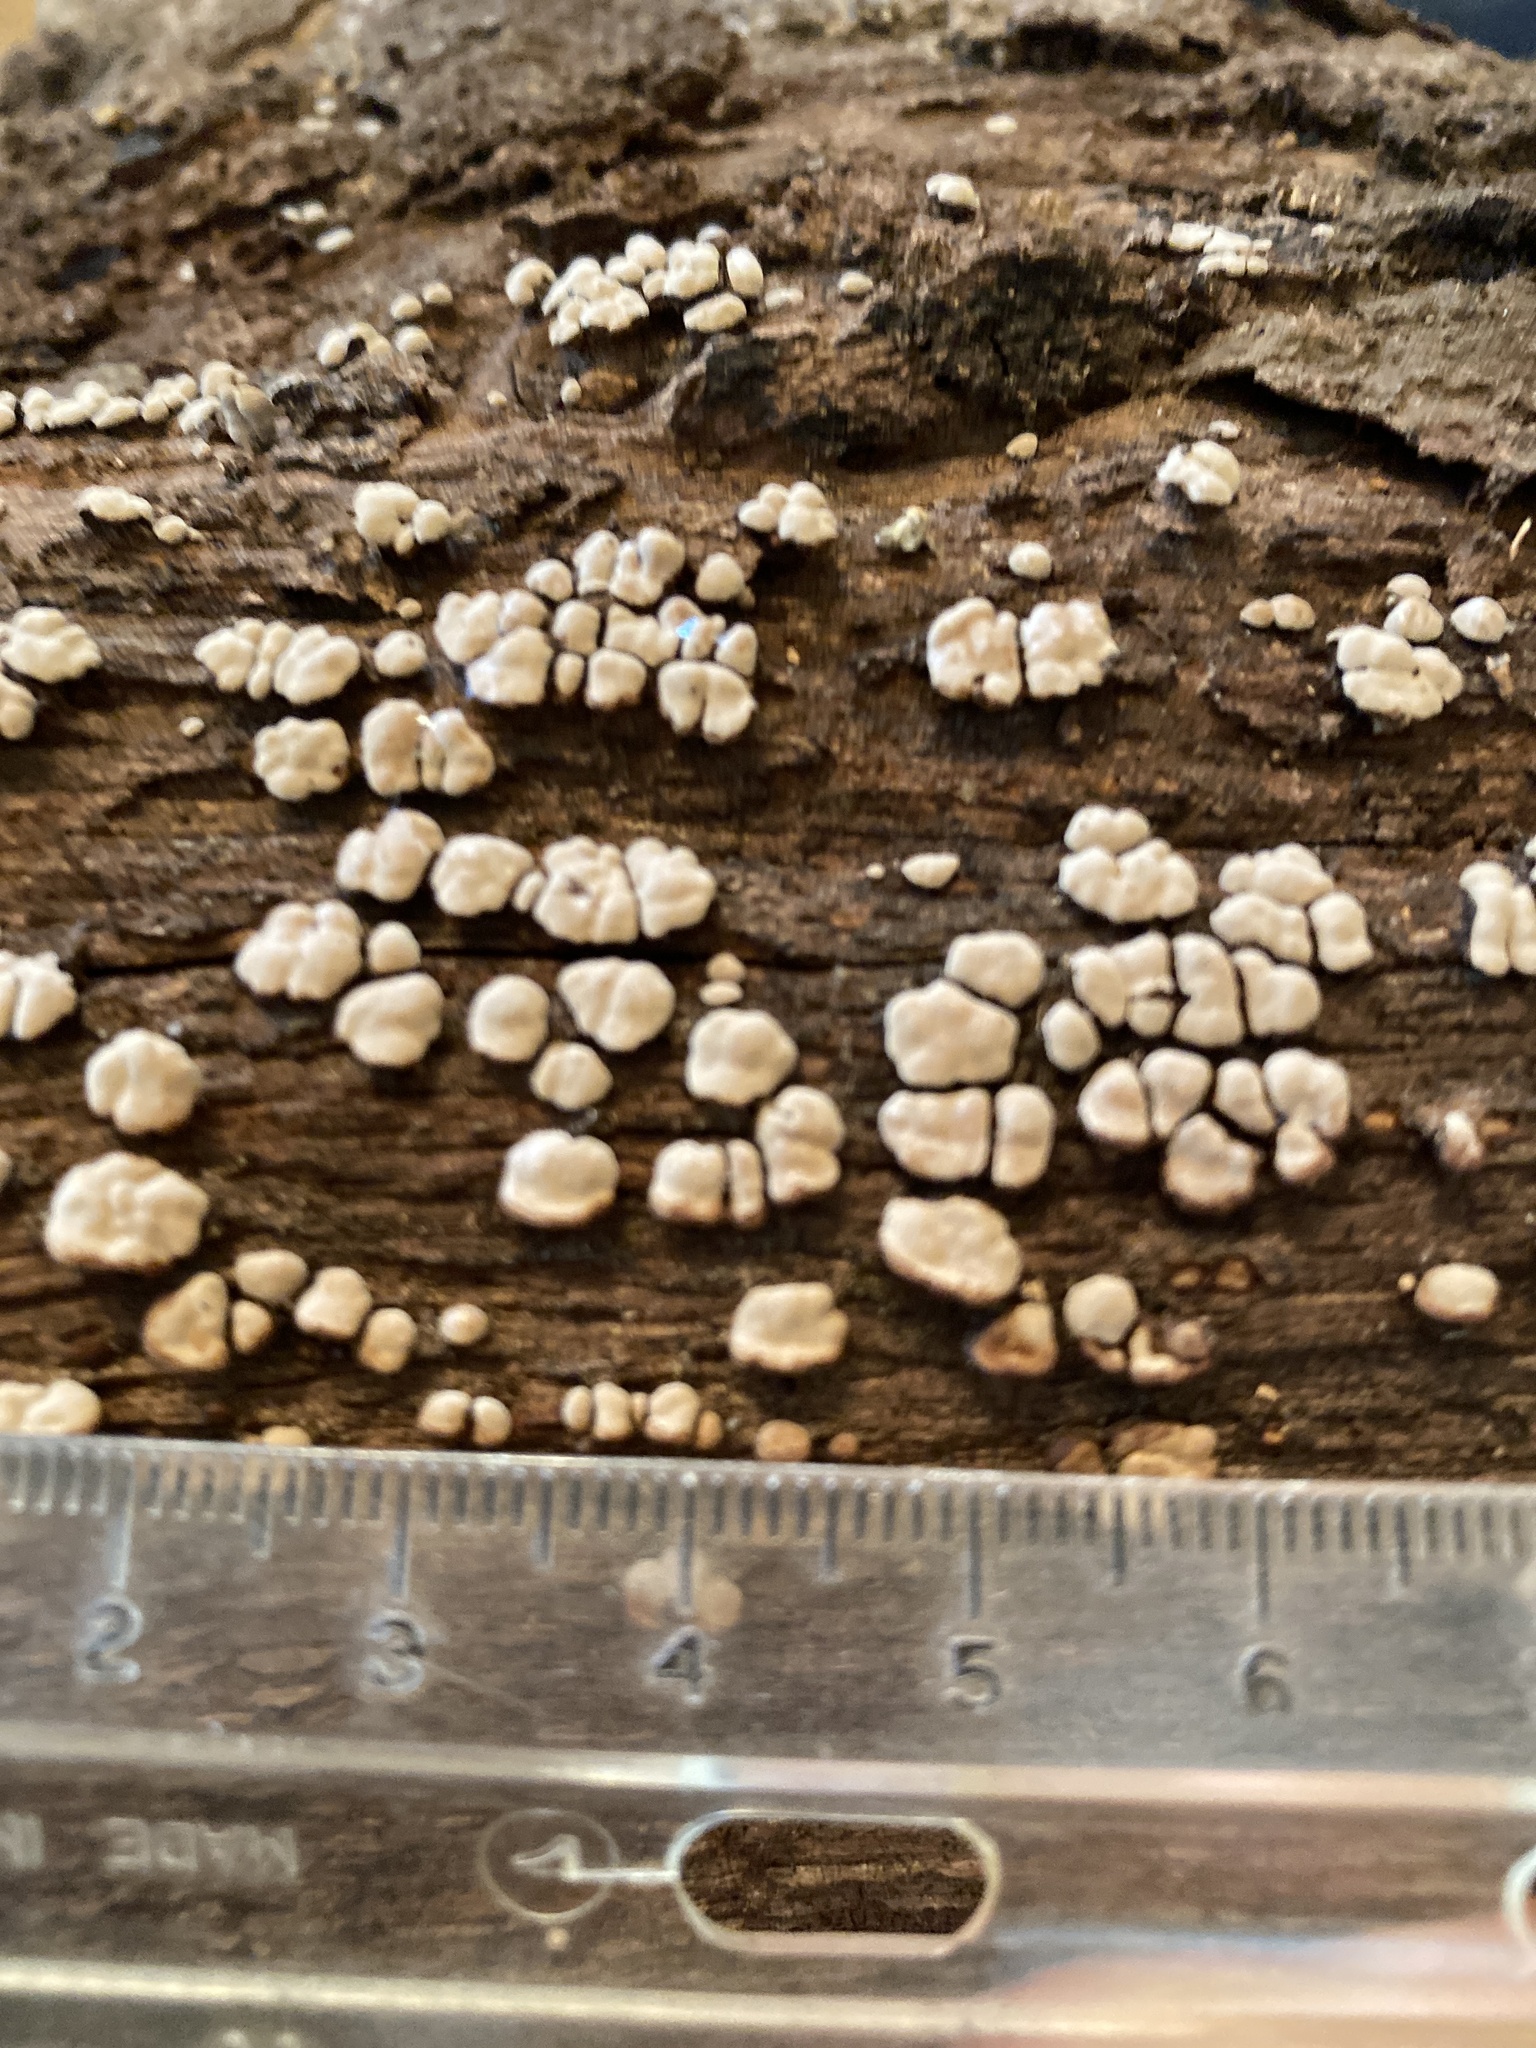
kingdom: Fungi
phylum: Basidiomycota
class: Agaricomycetes
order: Russulales
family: Stereaceae
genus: Xylobolus
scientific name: Xylobolus frustulatus
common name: Ceramic parchment
